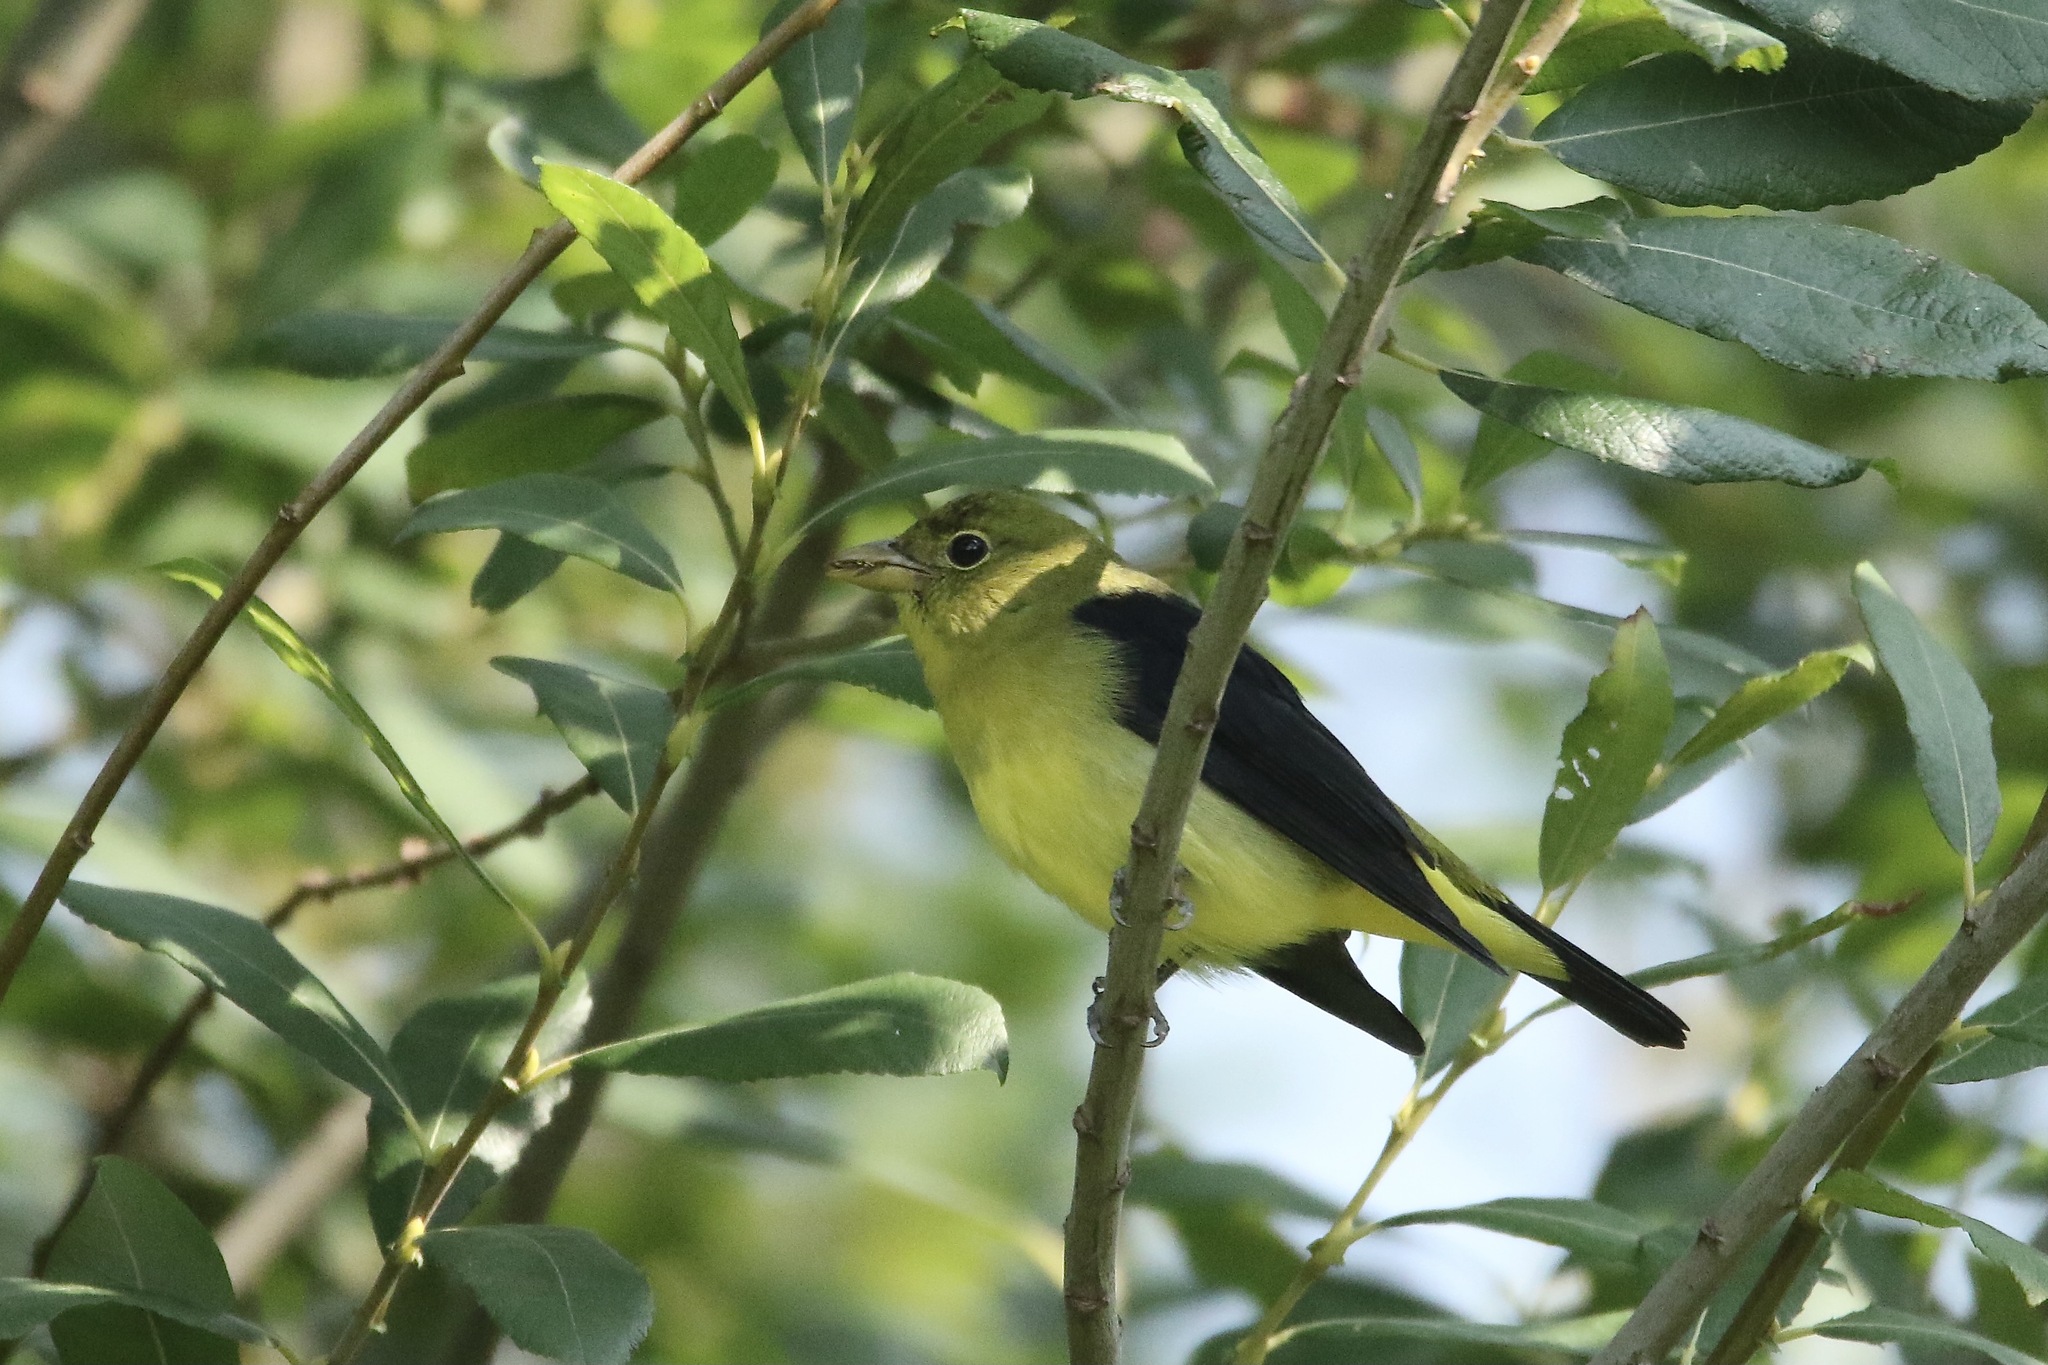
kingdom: Animalia
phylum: Chordata
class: Aves
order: Passeriformes
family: Cardinalidae
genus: Piranga
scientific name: Piranga olivacea
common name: Scarlet tanager
